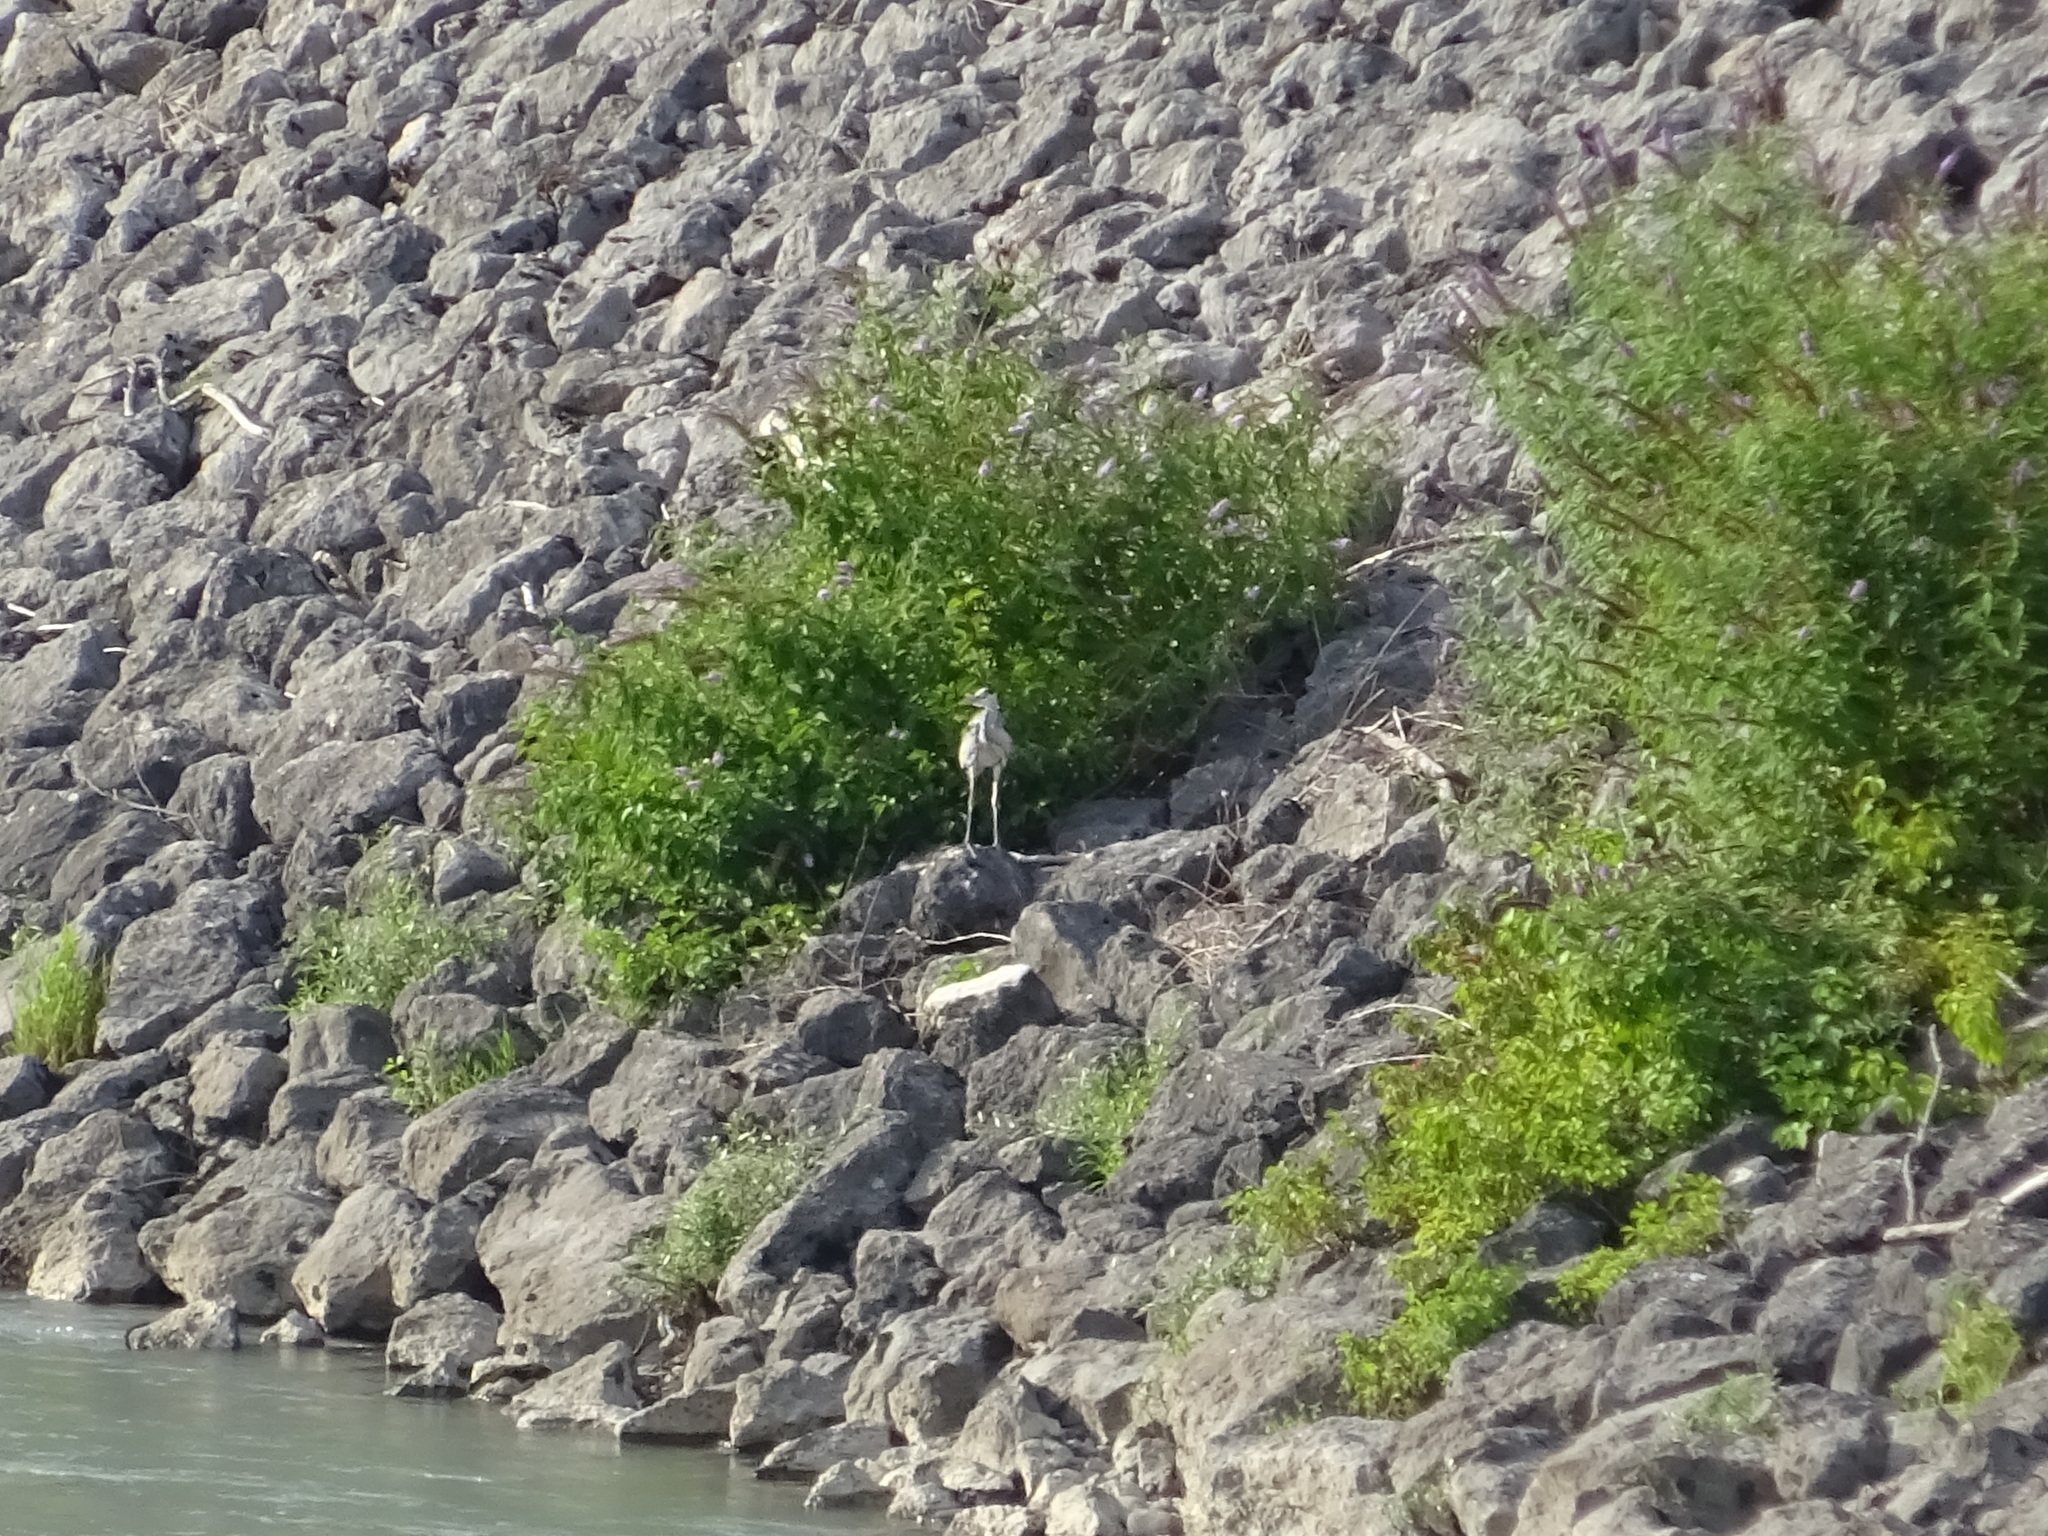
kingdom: Animalia
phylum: Chordata
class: Aves
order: Pelecaniformes
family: Ardeidae
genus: Ardea
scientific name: Ardea cinerea
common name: Grey heron
